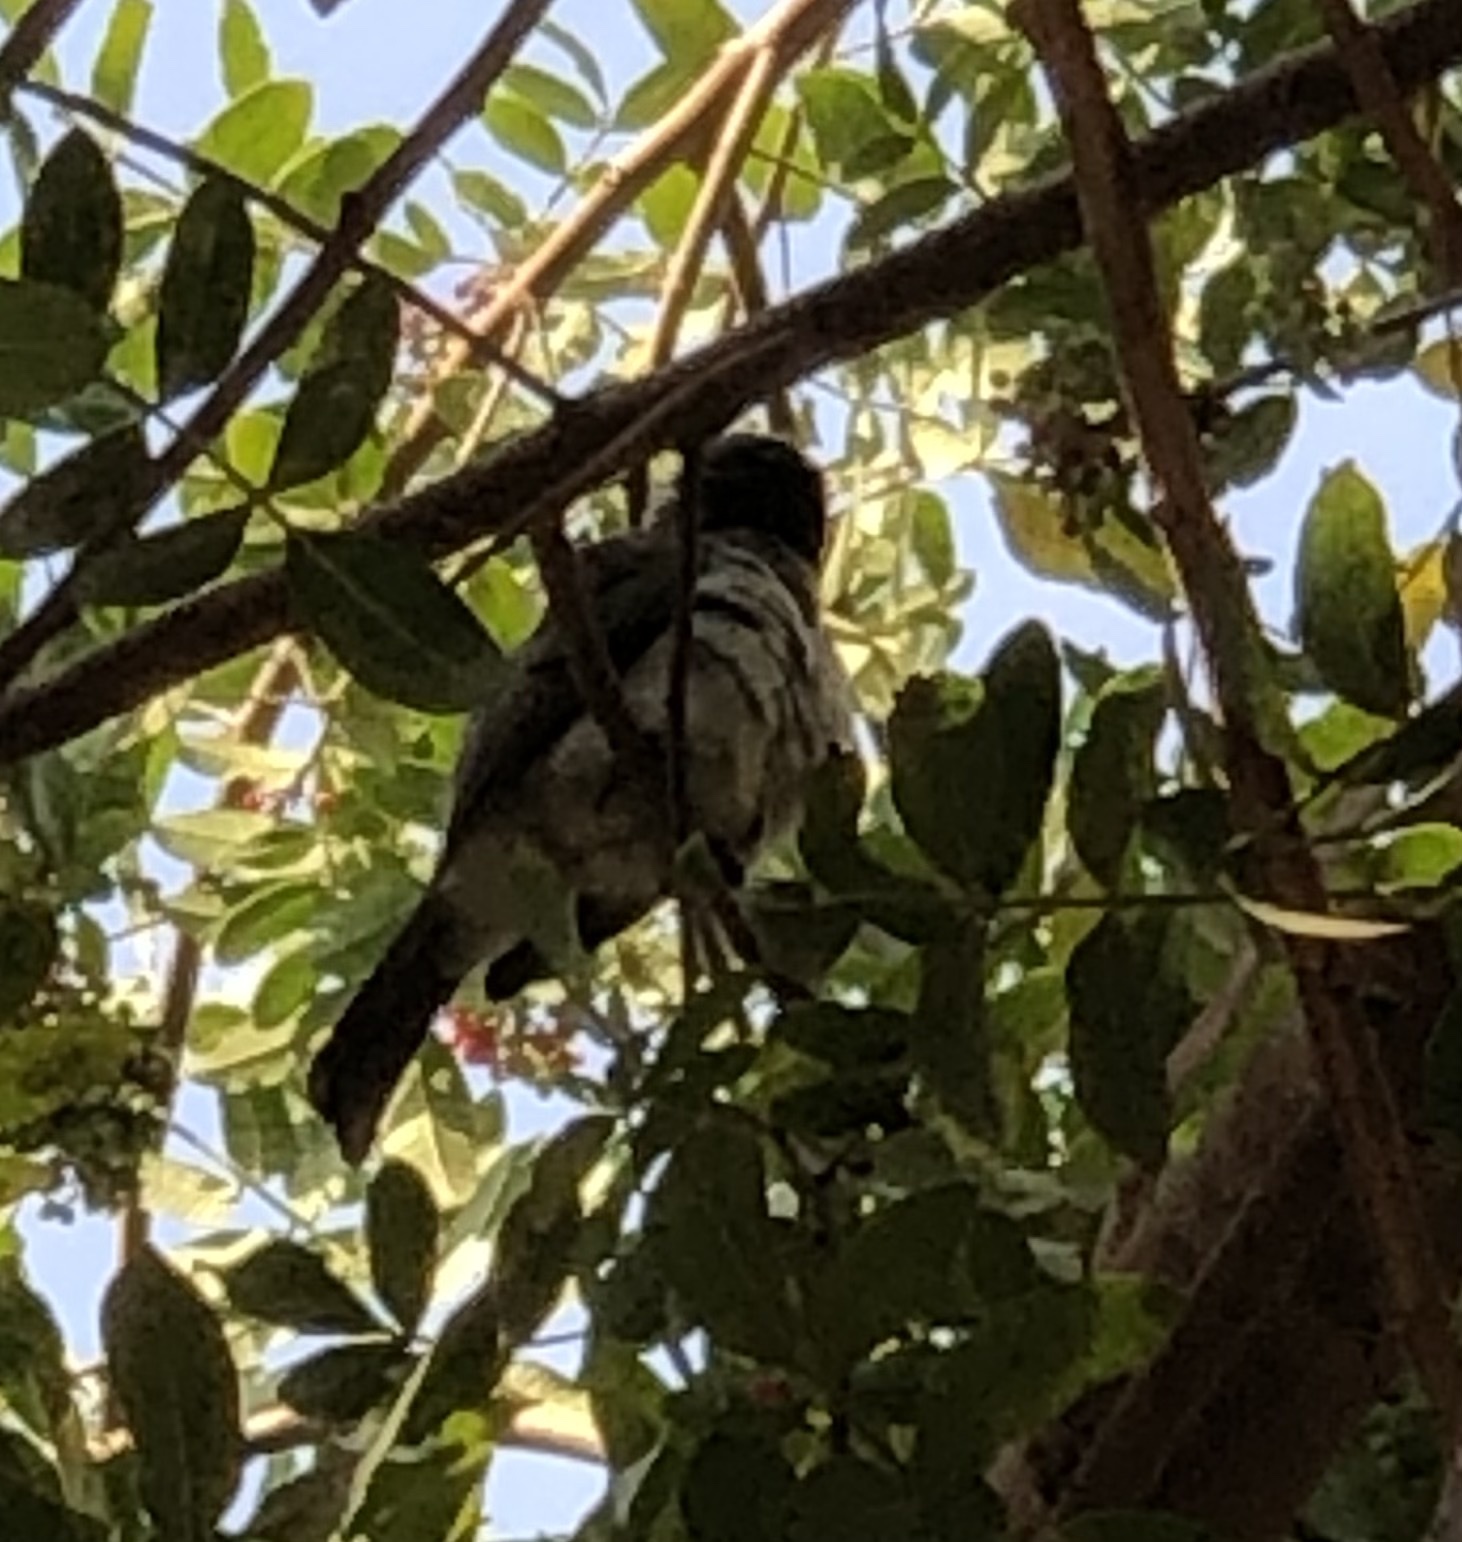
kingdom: Animalia
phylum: Chordata
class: Aves
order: Passeriformes
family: Pycnonotidae
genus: Pycnonotus
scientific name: Pycnonotus barbatus
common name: Common bulbul
